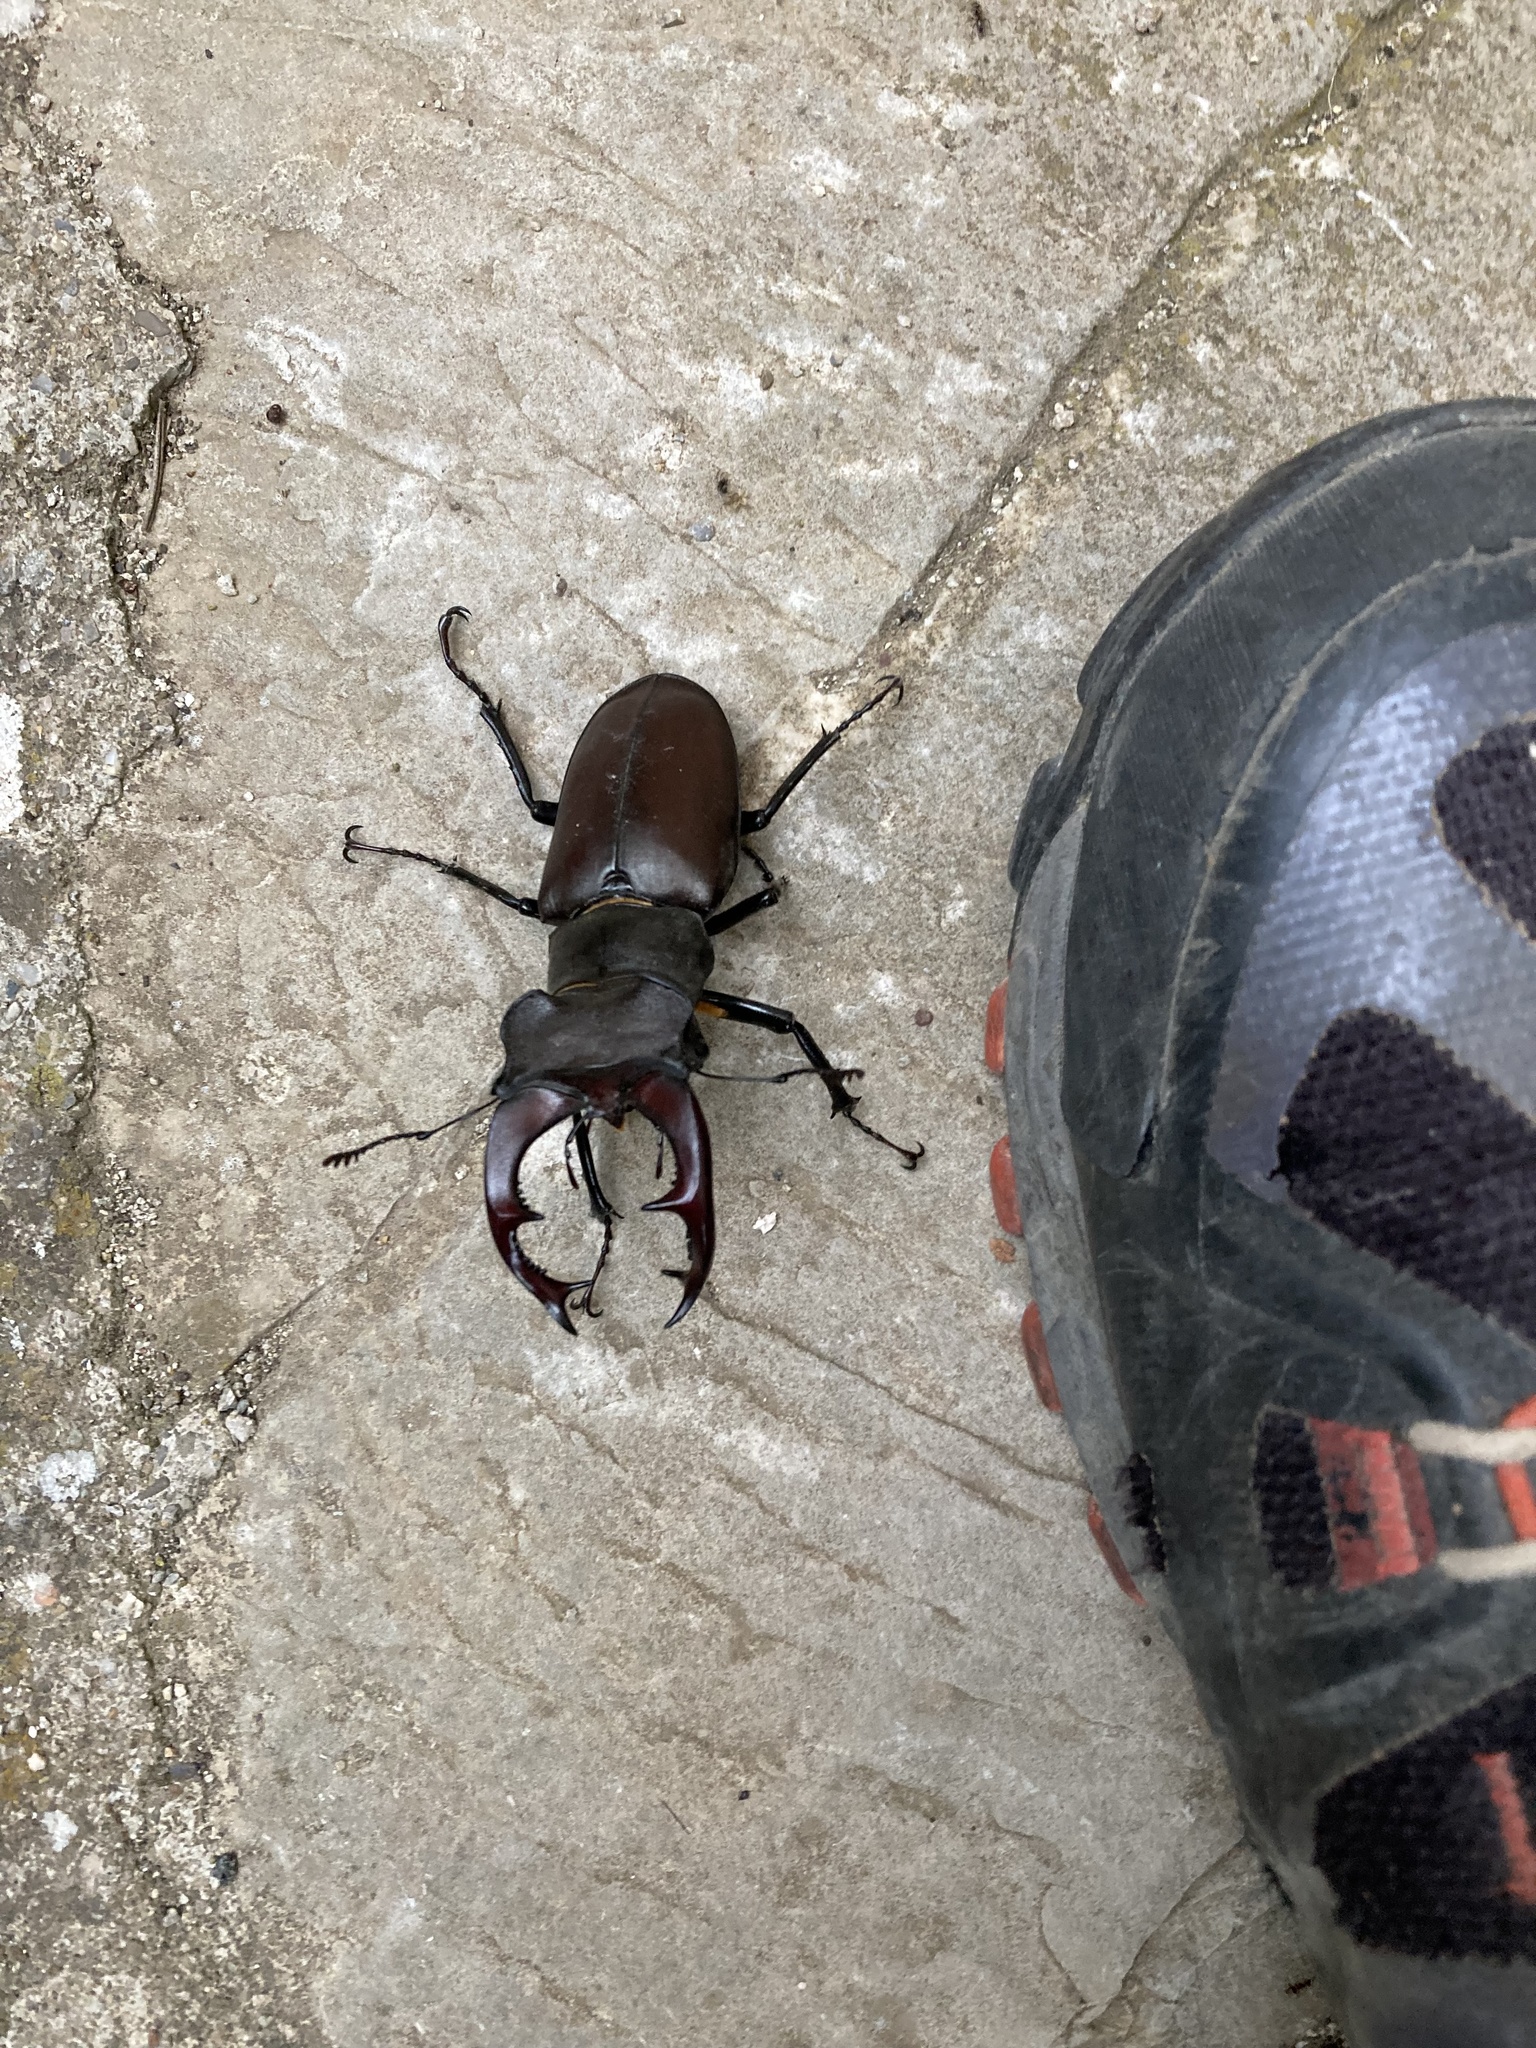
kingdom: Animalia
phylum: Arthropoda
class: Insecta
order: Coleoptera
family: Lucanidae
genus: Lucanus
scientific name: Lucanus cervus
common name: Stag beetle
